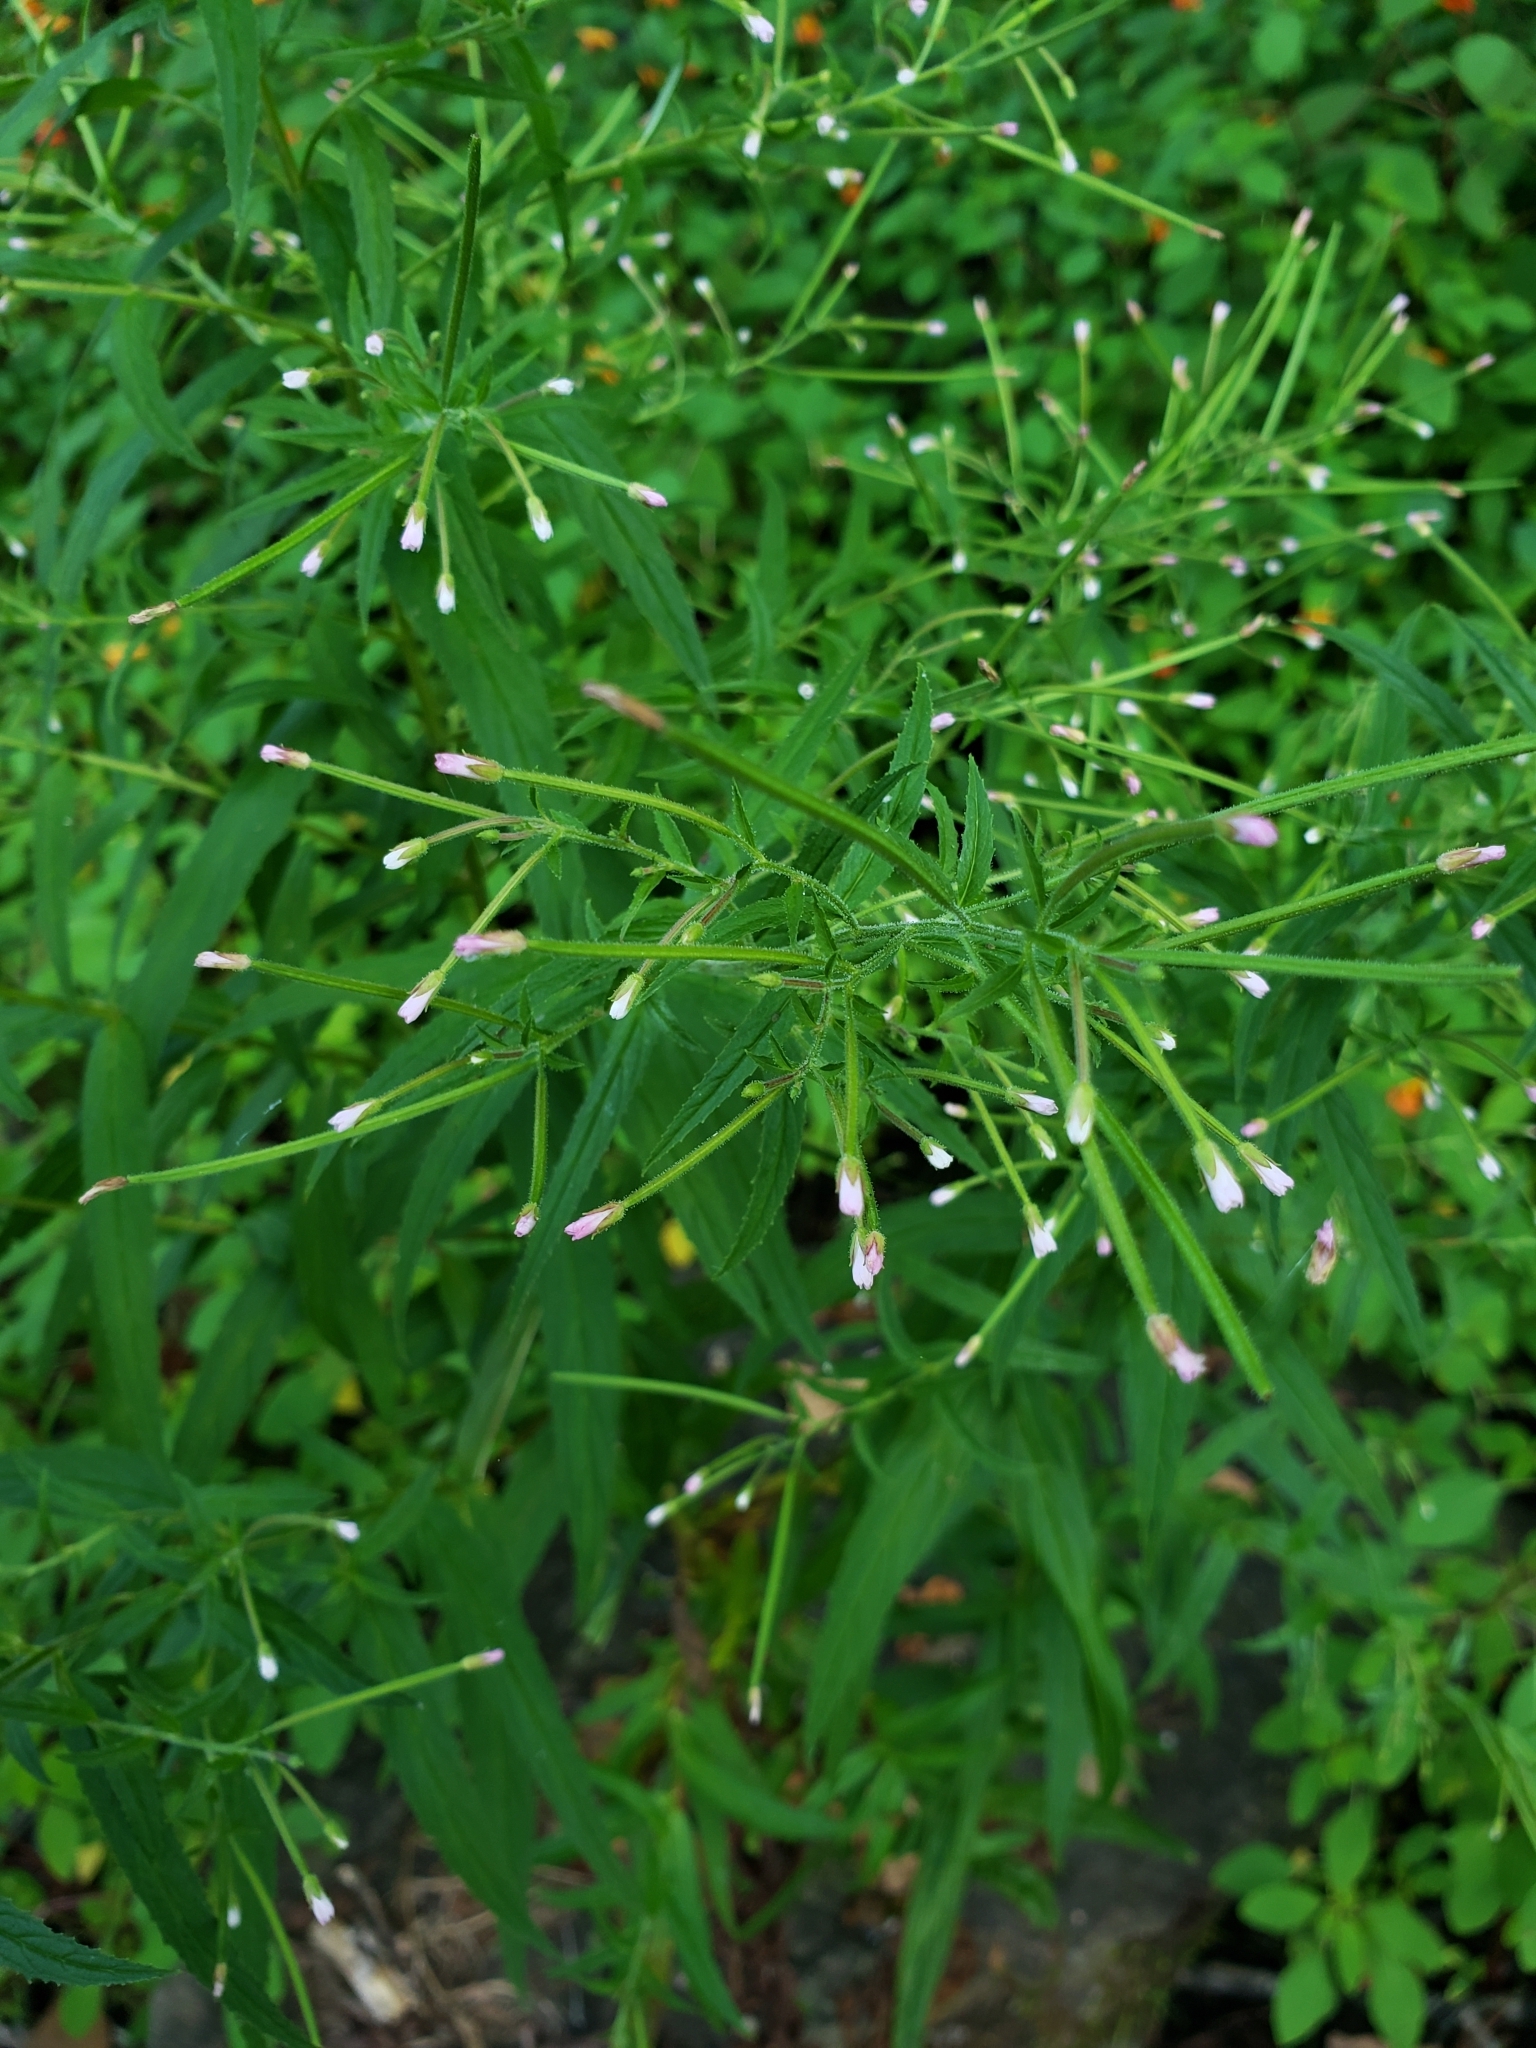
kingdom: Plantae
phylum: Tracheophyta
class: Magnoliopsida
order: Myrtales
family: Onagraceae
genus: Epilobium
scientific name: Epilobium coloratum
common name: Bronze willowherb
